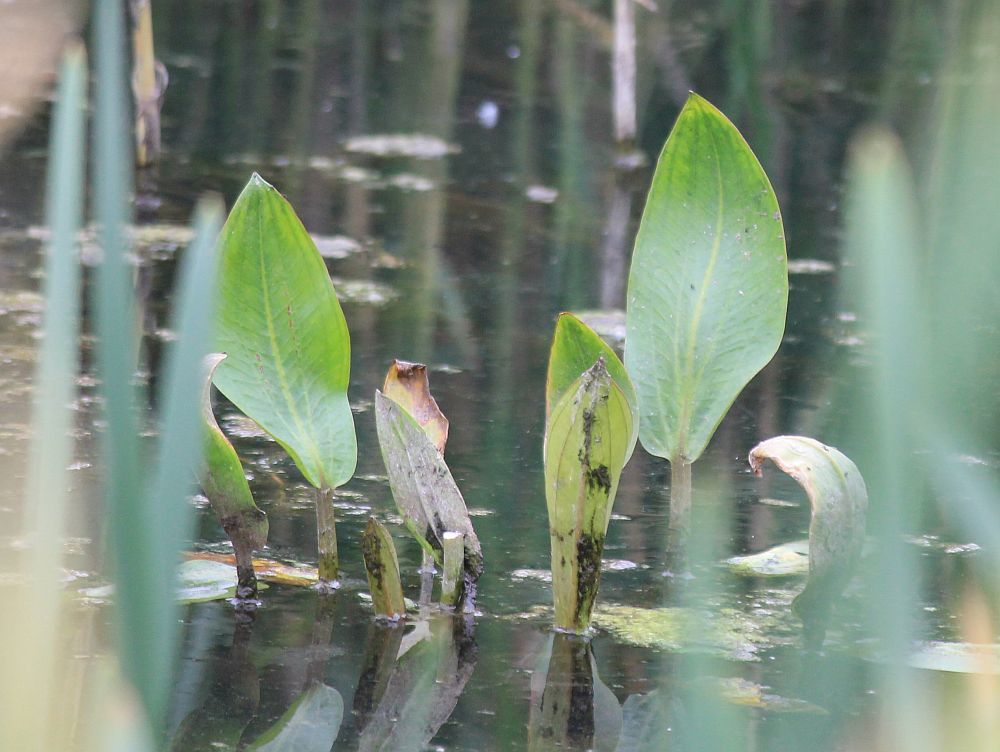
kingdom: Plantae
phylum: Tracheophyta
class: Liliopsida
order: Alismatales
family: Alismataceae
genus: Alisma
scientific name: Alisma plantago-aquatica
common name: Water-plantain
